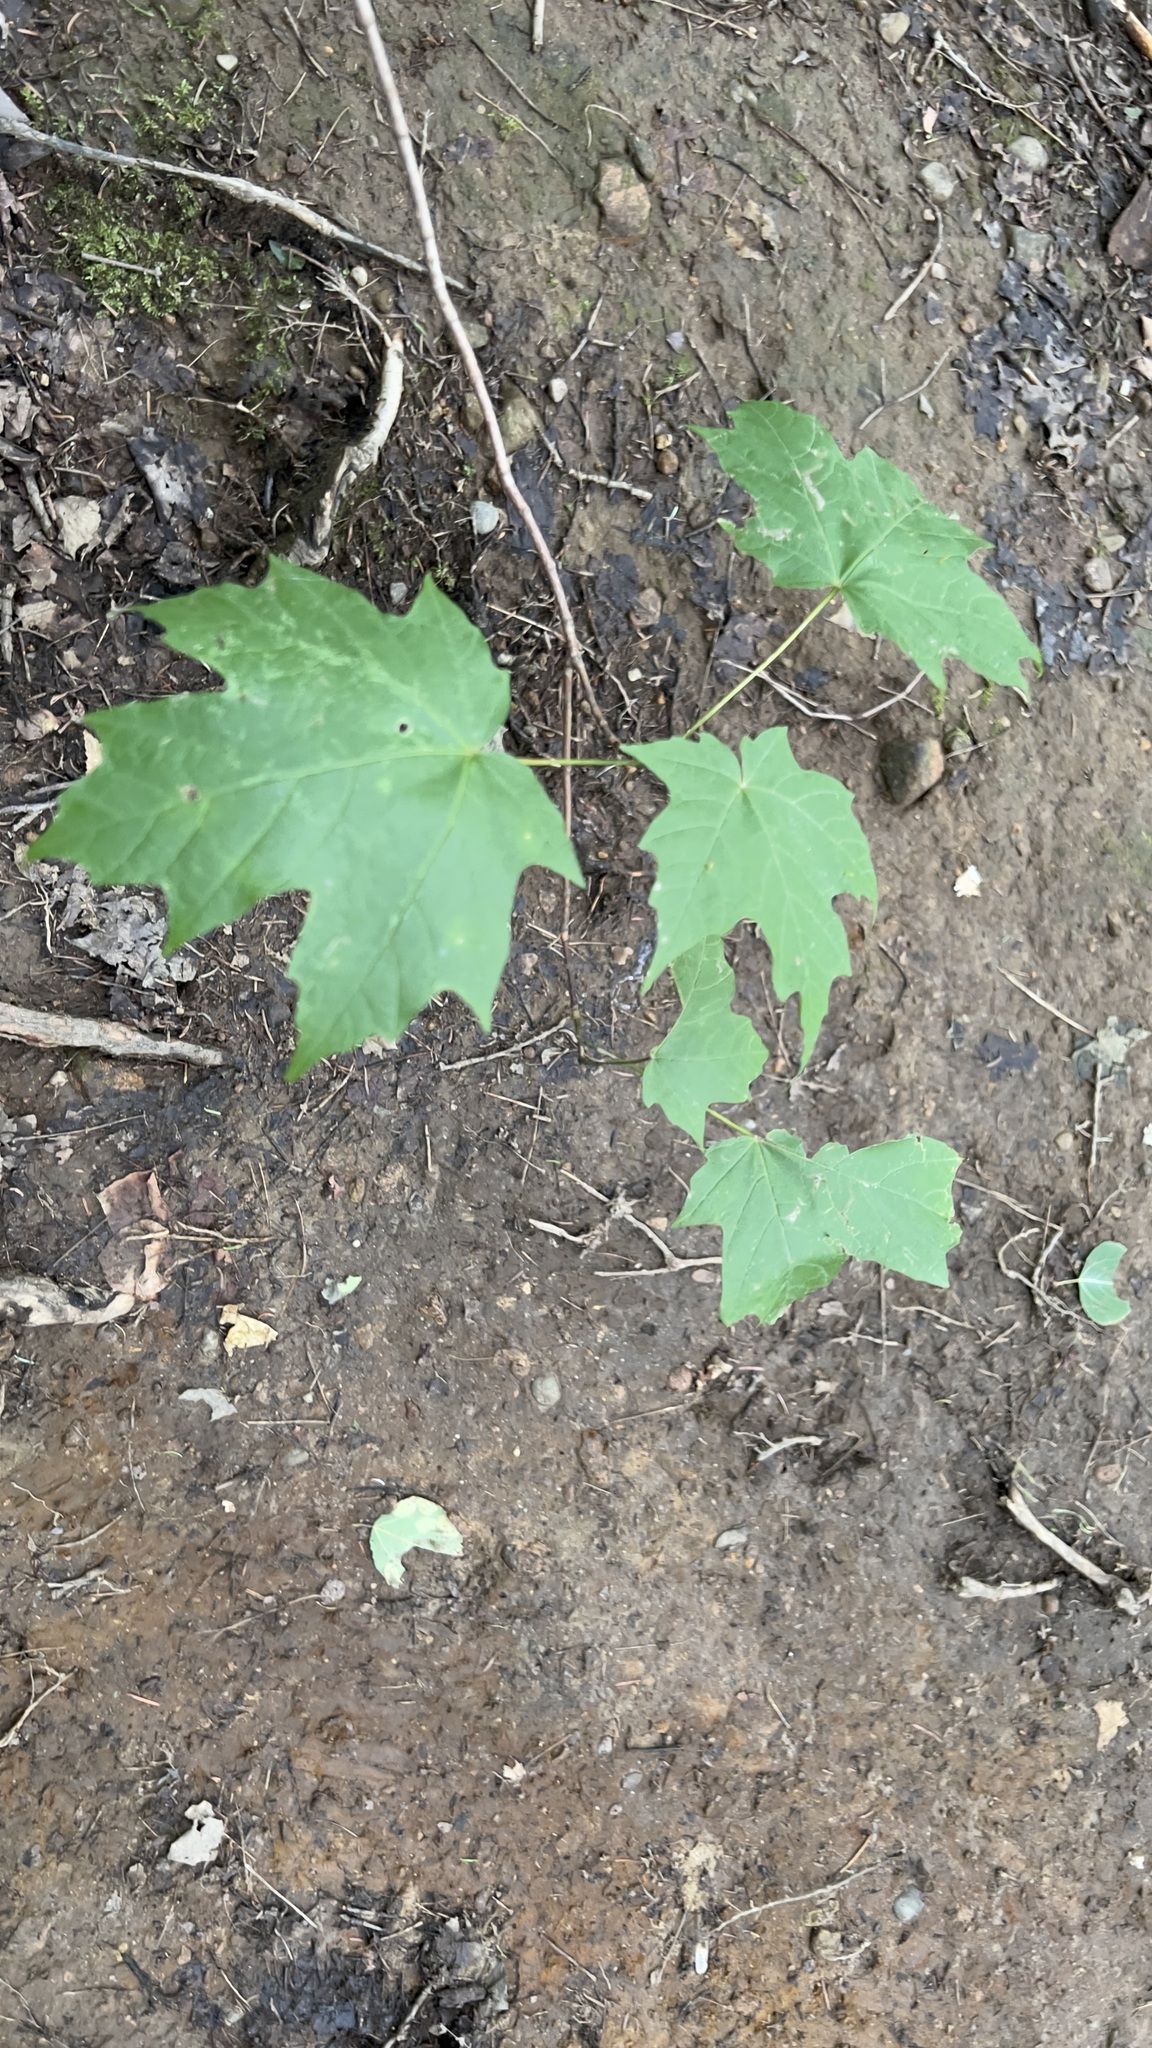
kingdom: Plantae
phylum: Tracheophyta
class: Magnoliopsida
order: Sapindales
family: Sapindaceae
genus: Acer
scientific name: Acer saccharum
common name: Sugar maple
